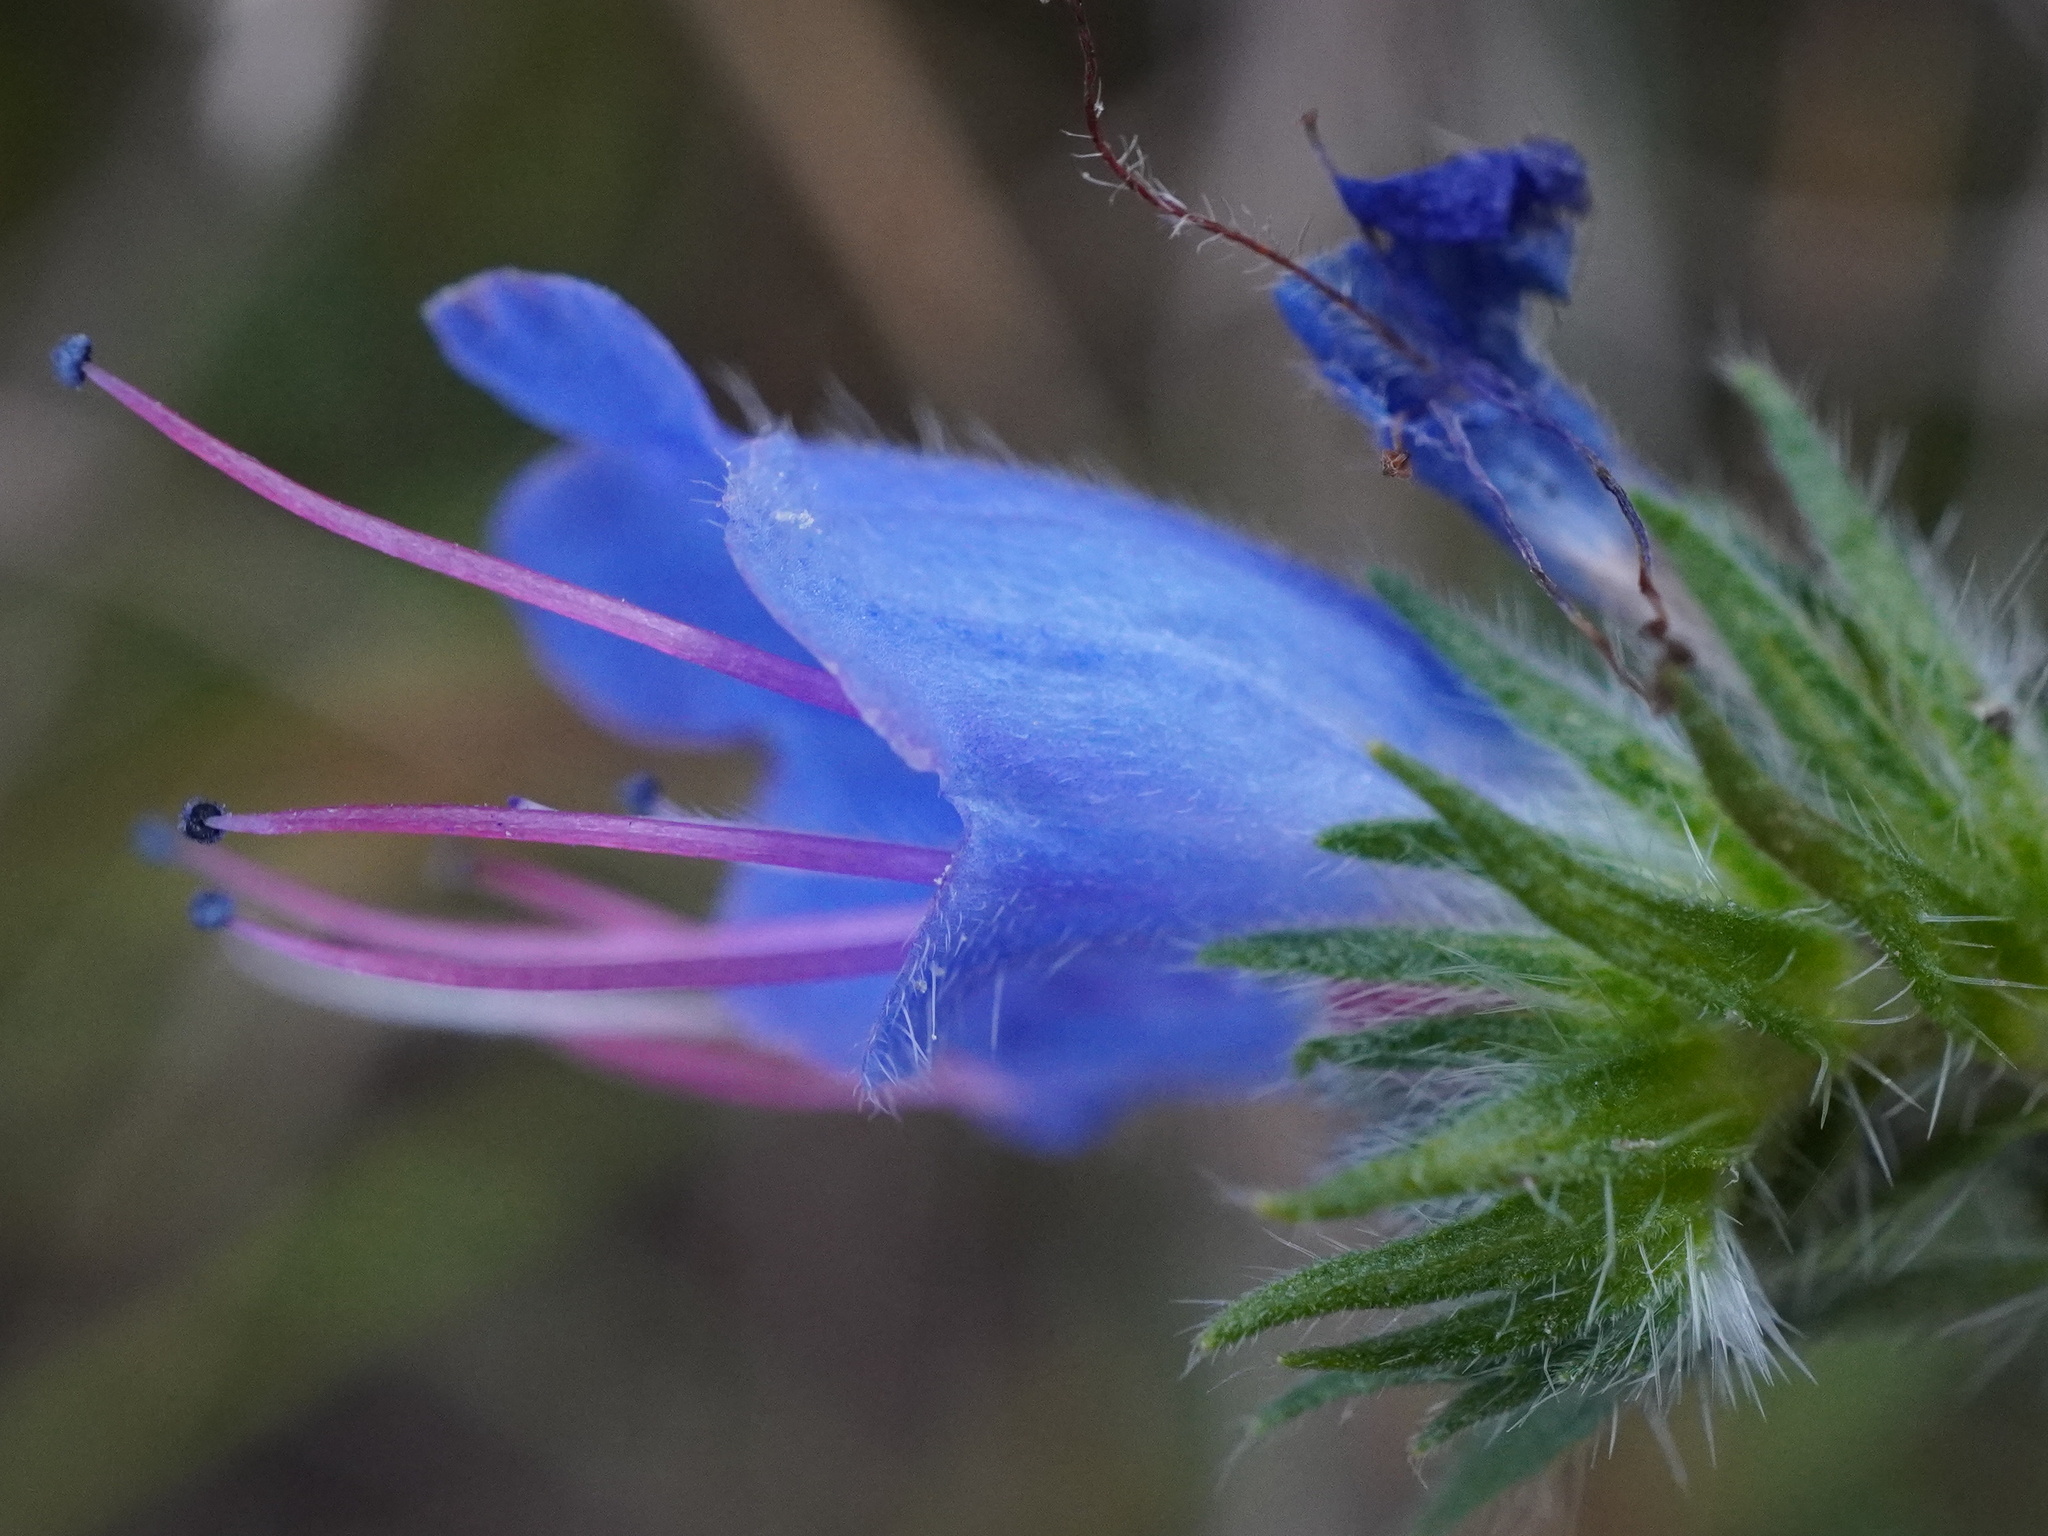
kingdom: Plantae
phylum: Tracheophyta
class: Magnoliopsida
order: Boraginales
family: Boraginaceae
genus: Echium
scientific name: Echium vulgare
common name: Common viper's bugloss
